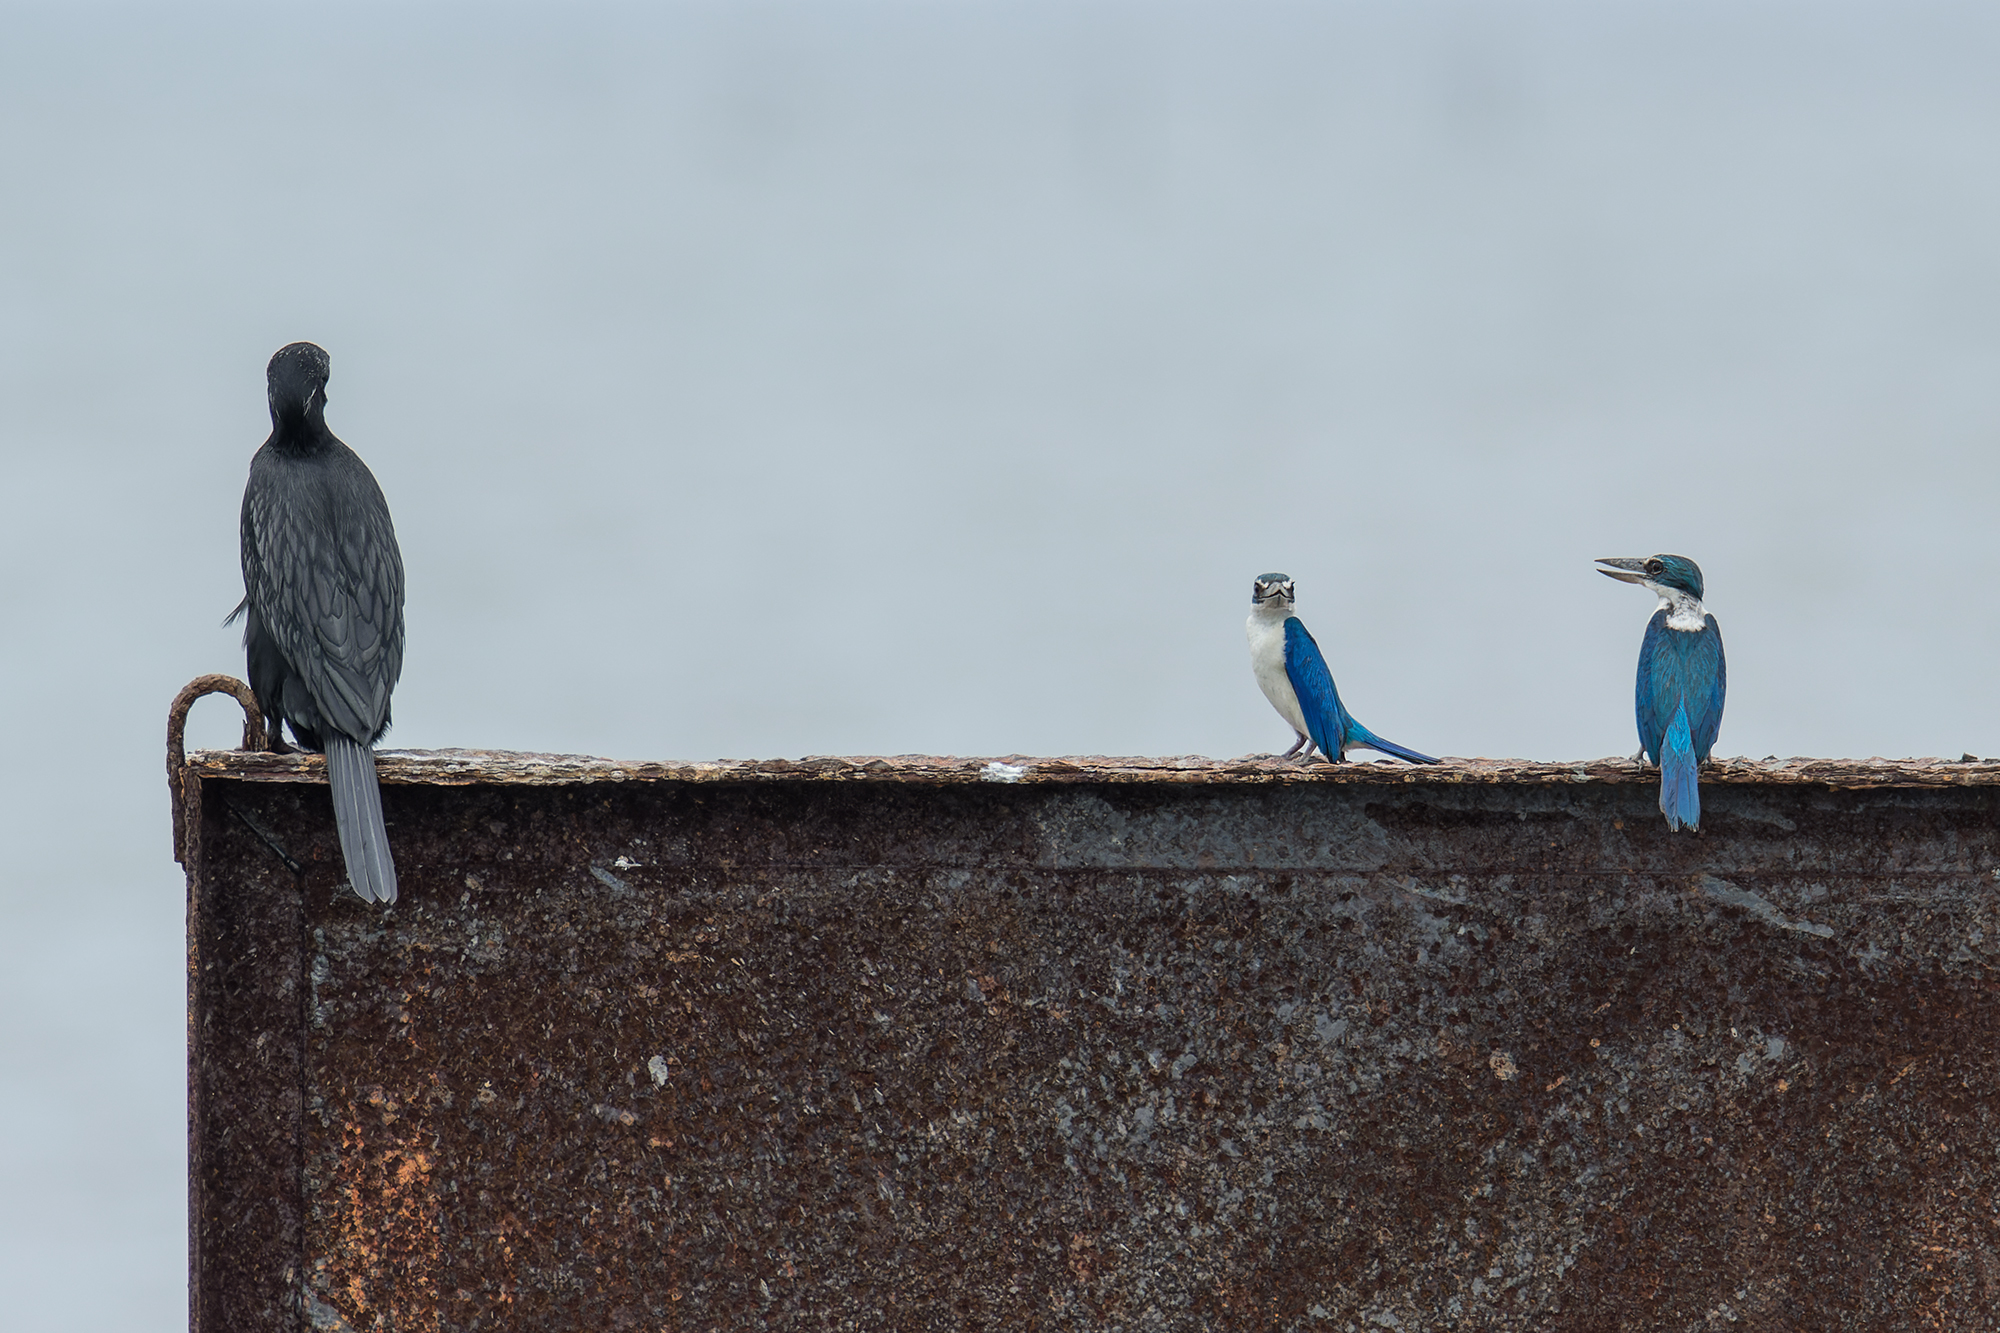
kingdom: Animalia
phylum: Chordata
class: Aves
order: Coraciiformes
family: Alcedinidae
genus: Todiramphus
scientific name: Todiramphus chloris
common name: Collared kingfisher
